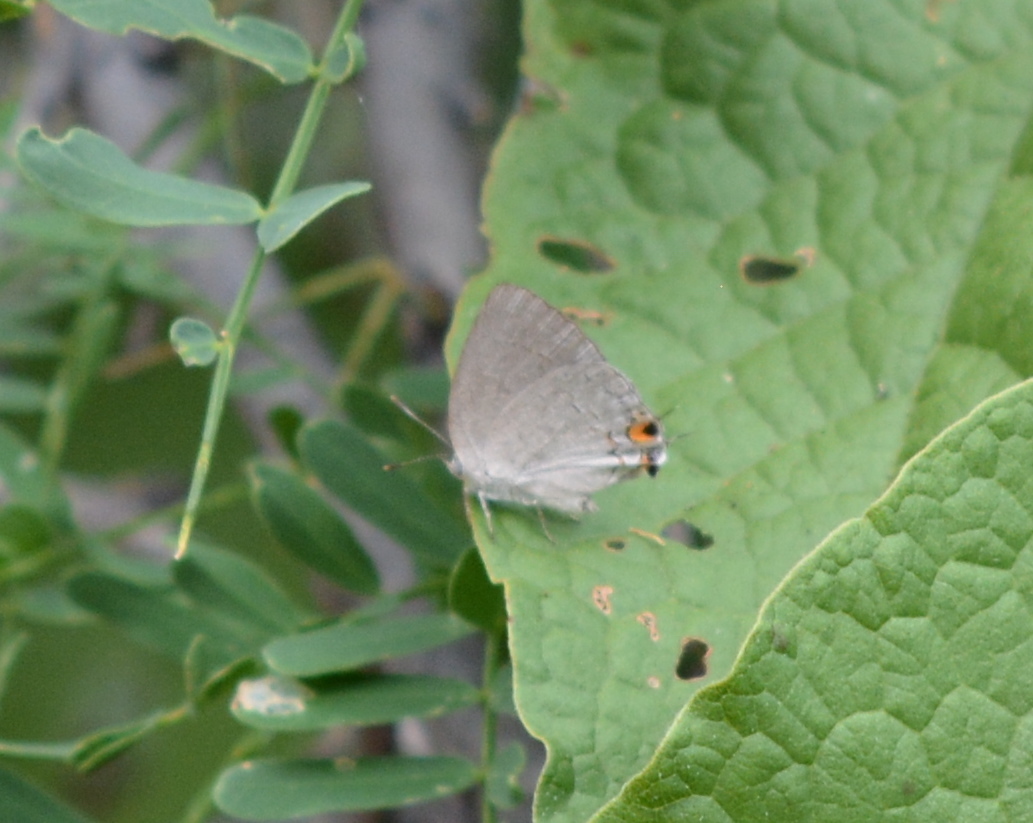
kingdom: Animalia
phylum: Arthropoda
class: Insecta
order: Lepidoptera
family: Lycaenidae
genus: Hypostrymon
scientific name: Hypostrymon critola
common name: Sonoran hairstreak
